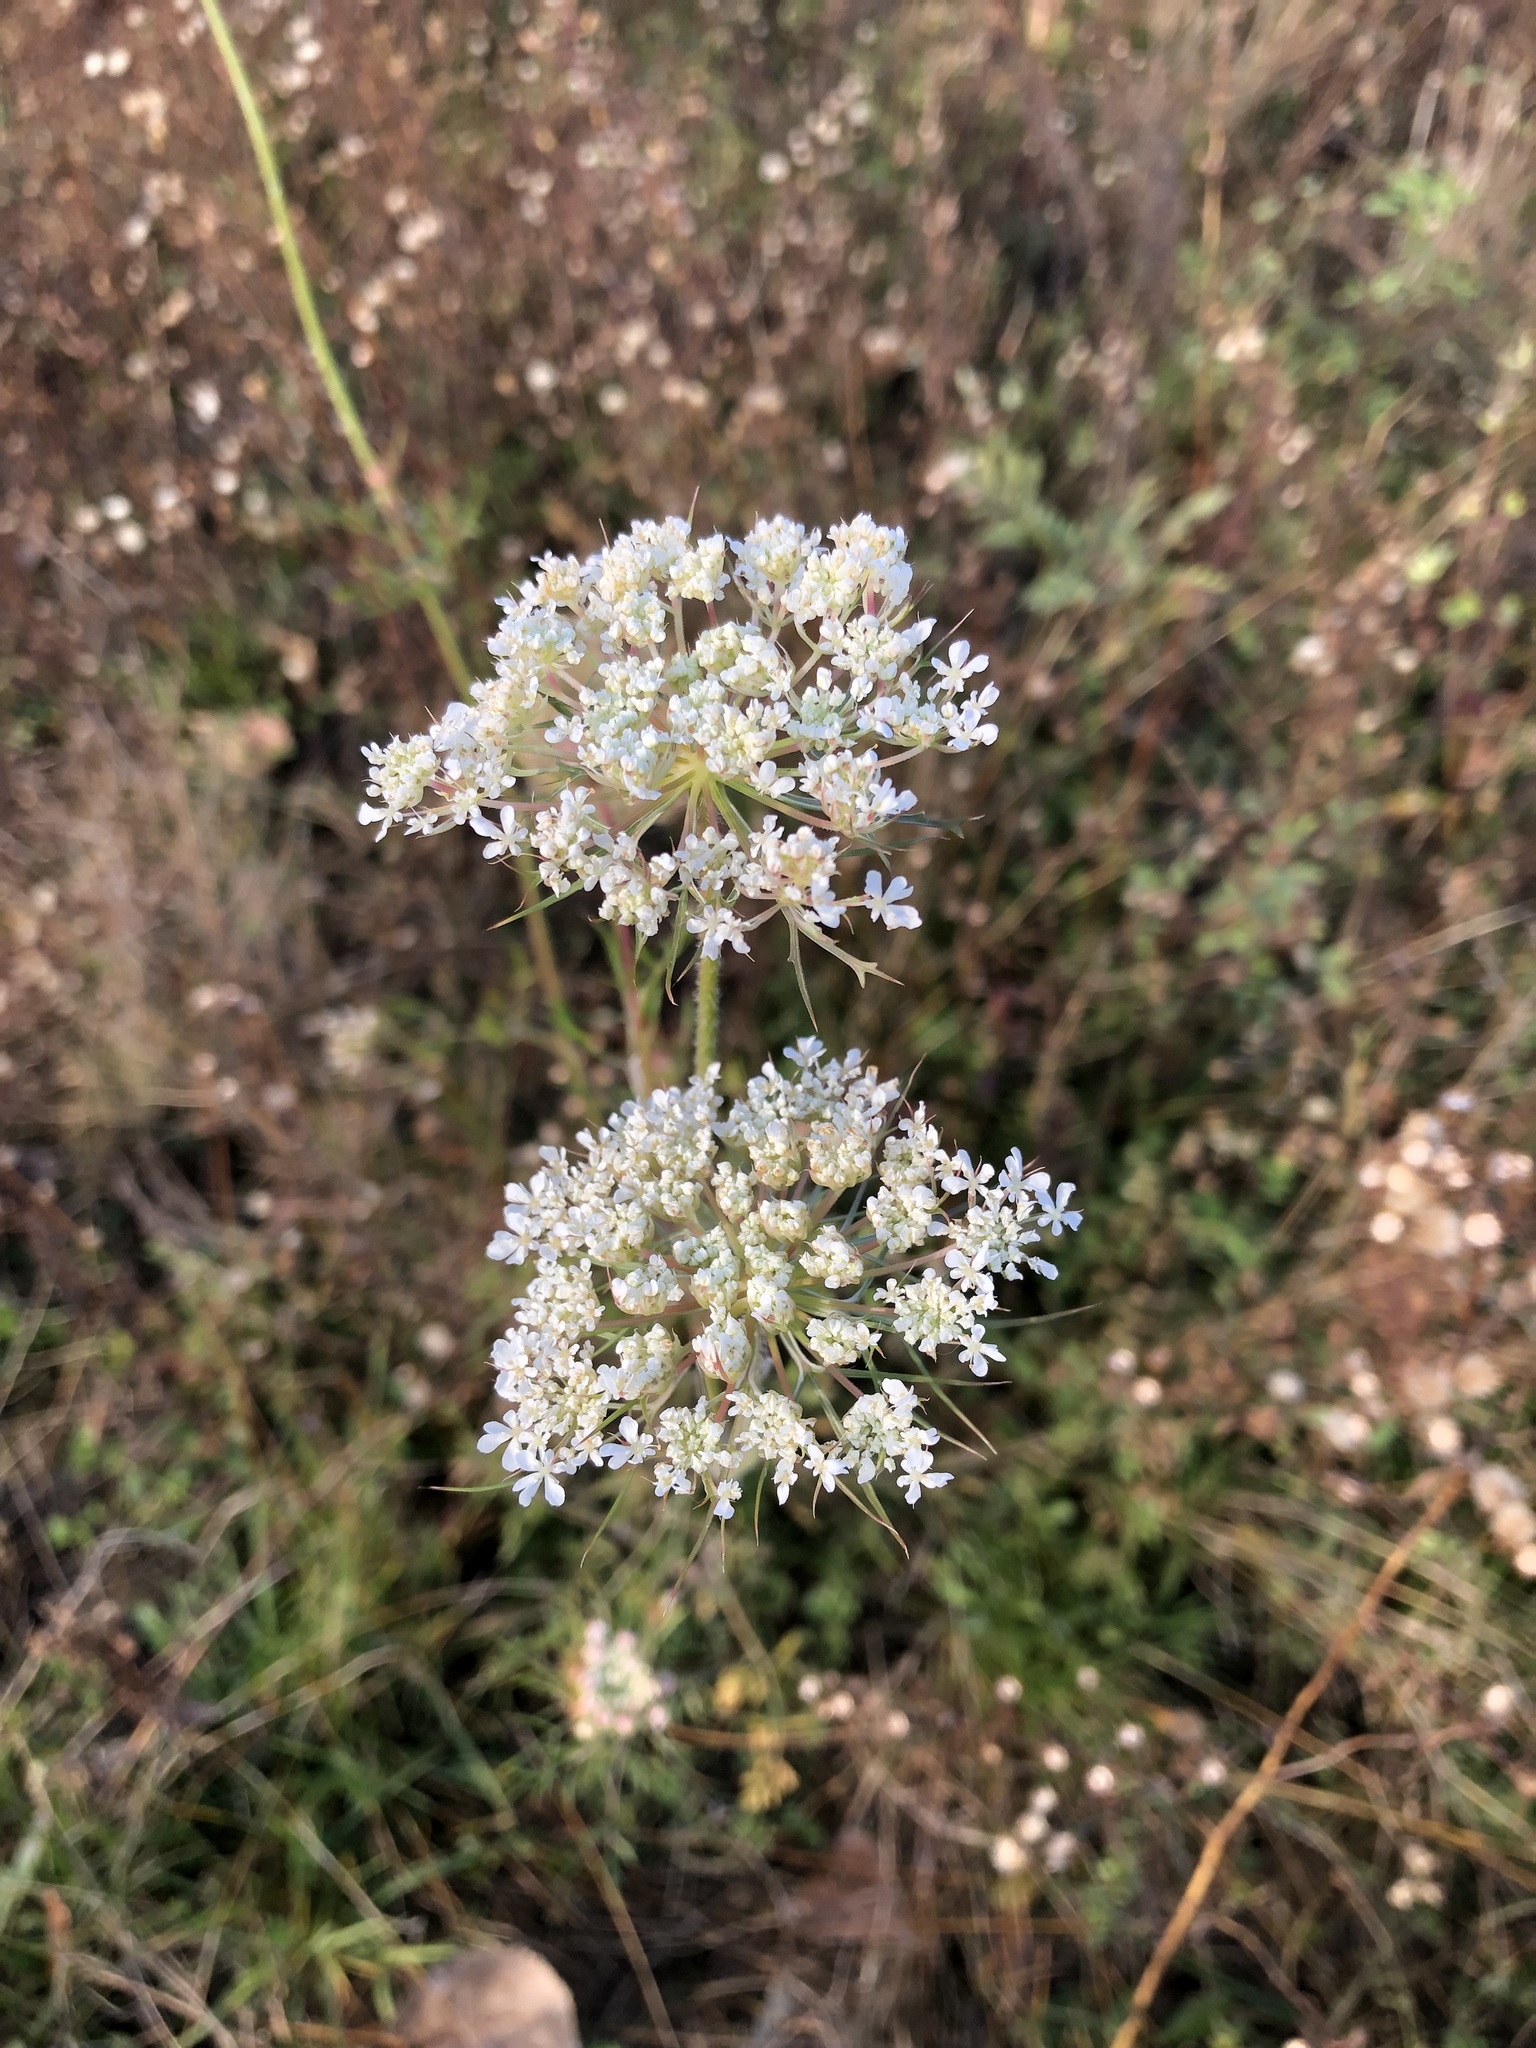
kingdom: Plantae
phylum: Tracheophyta
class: Magnoliopsida
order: Apiales
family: Apiaceae
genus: Daucus
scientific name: Daucus carota
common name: Wild carrot
